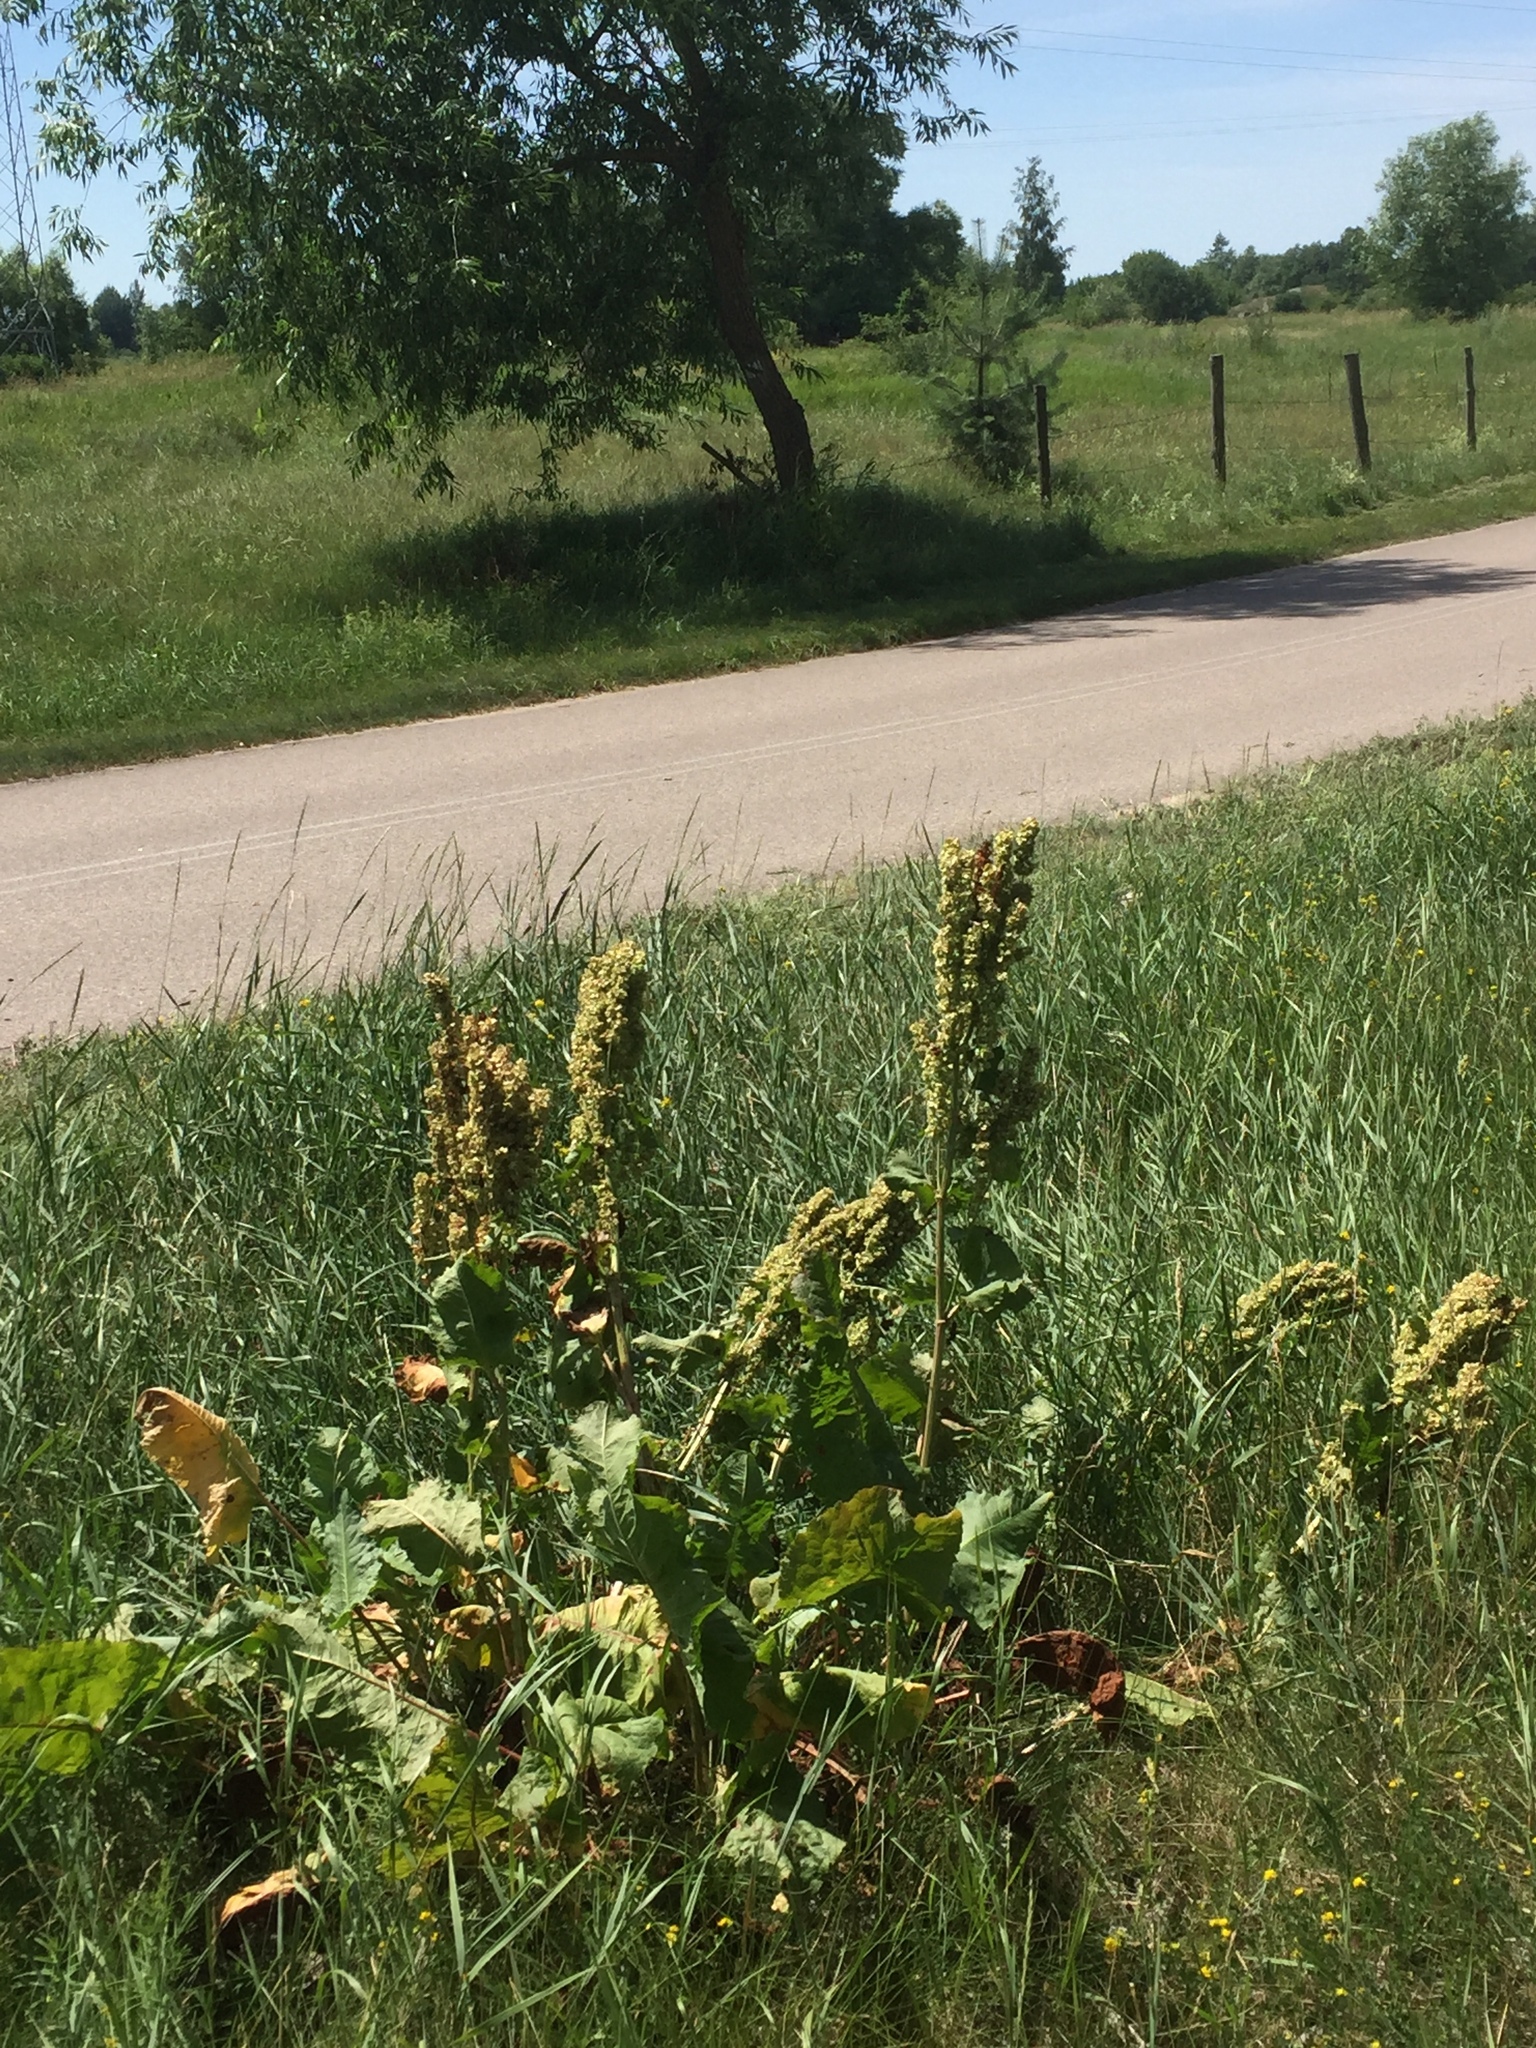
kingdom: Plantae
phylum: Tracheophyta
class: Magnoliopsida
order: Caryophyllales
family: Polygonaceae
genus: Rumex
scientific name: Rumex confertus
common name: Russian dock
